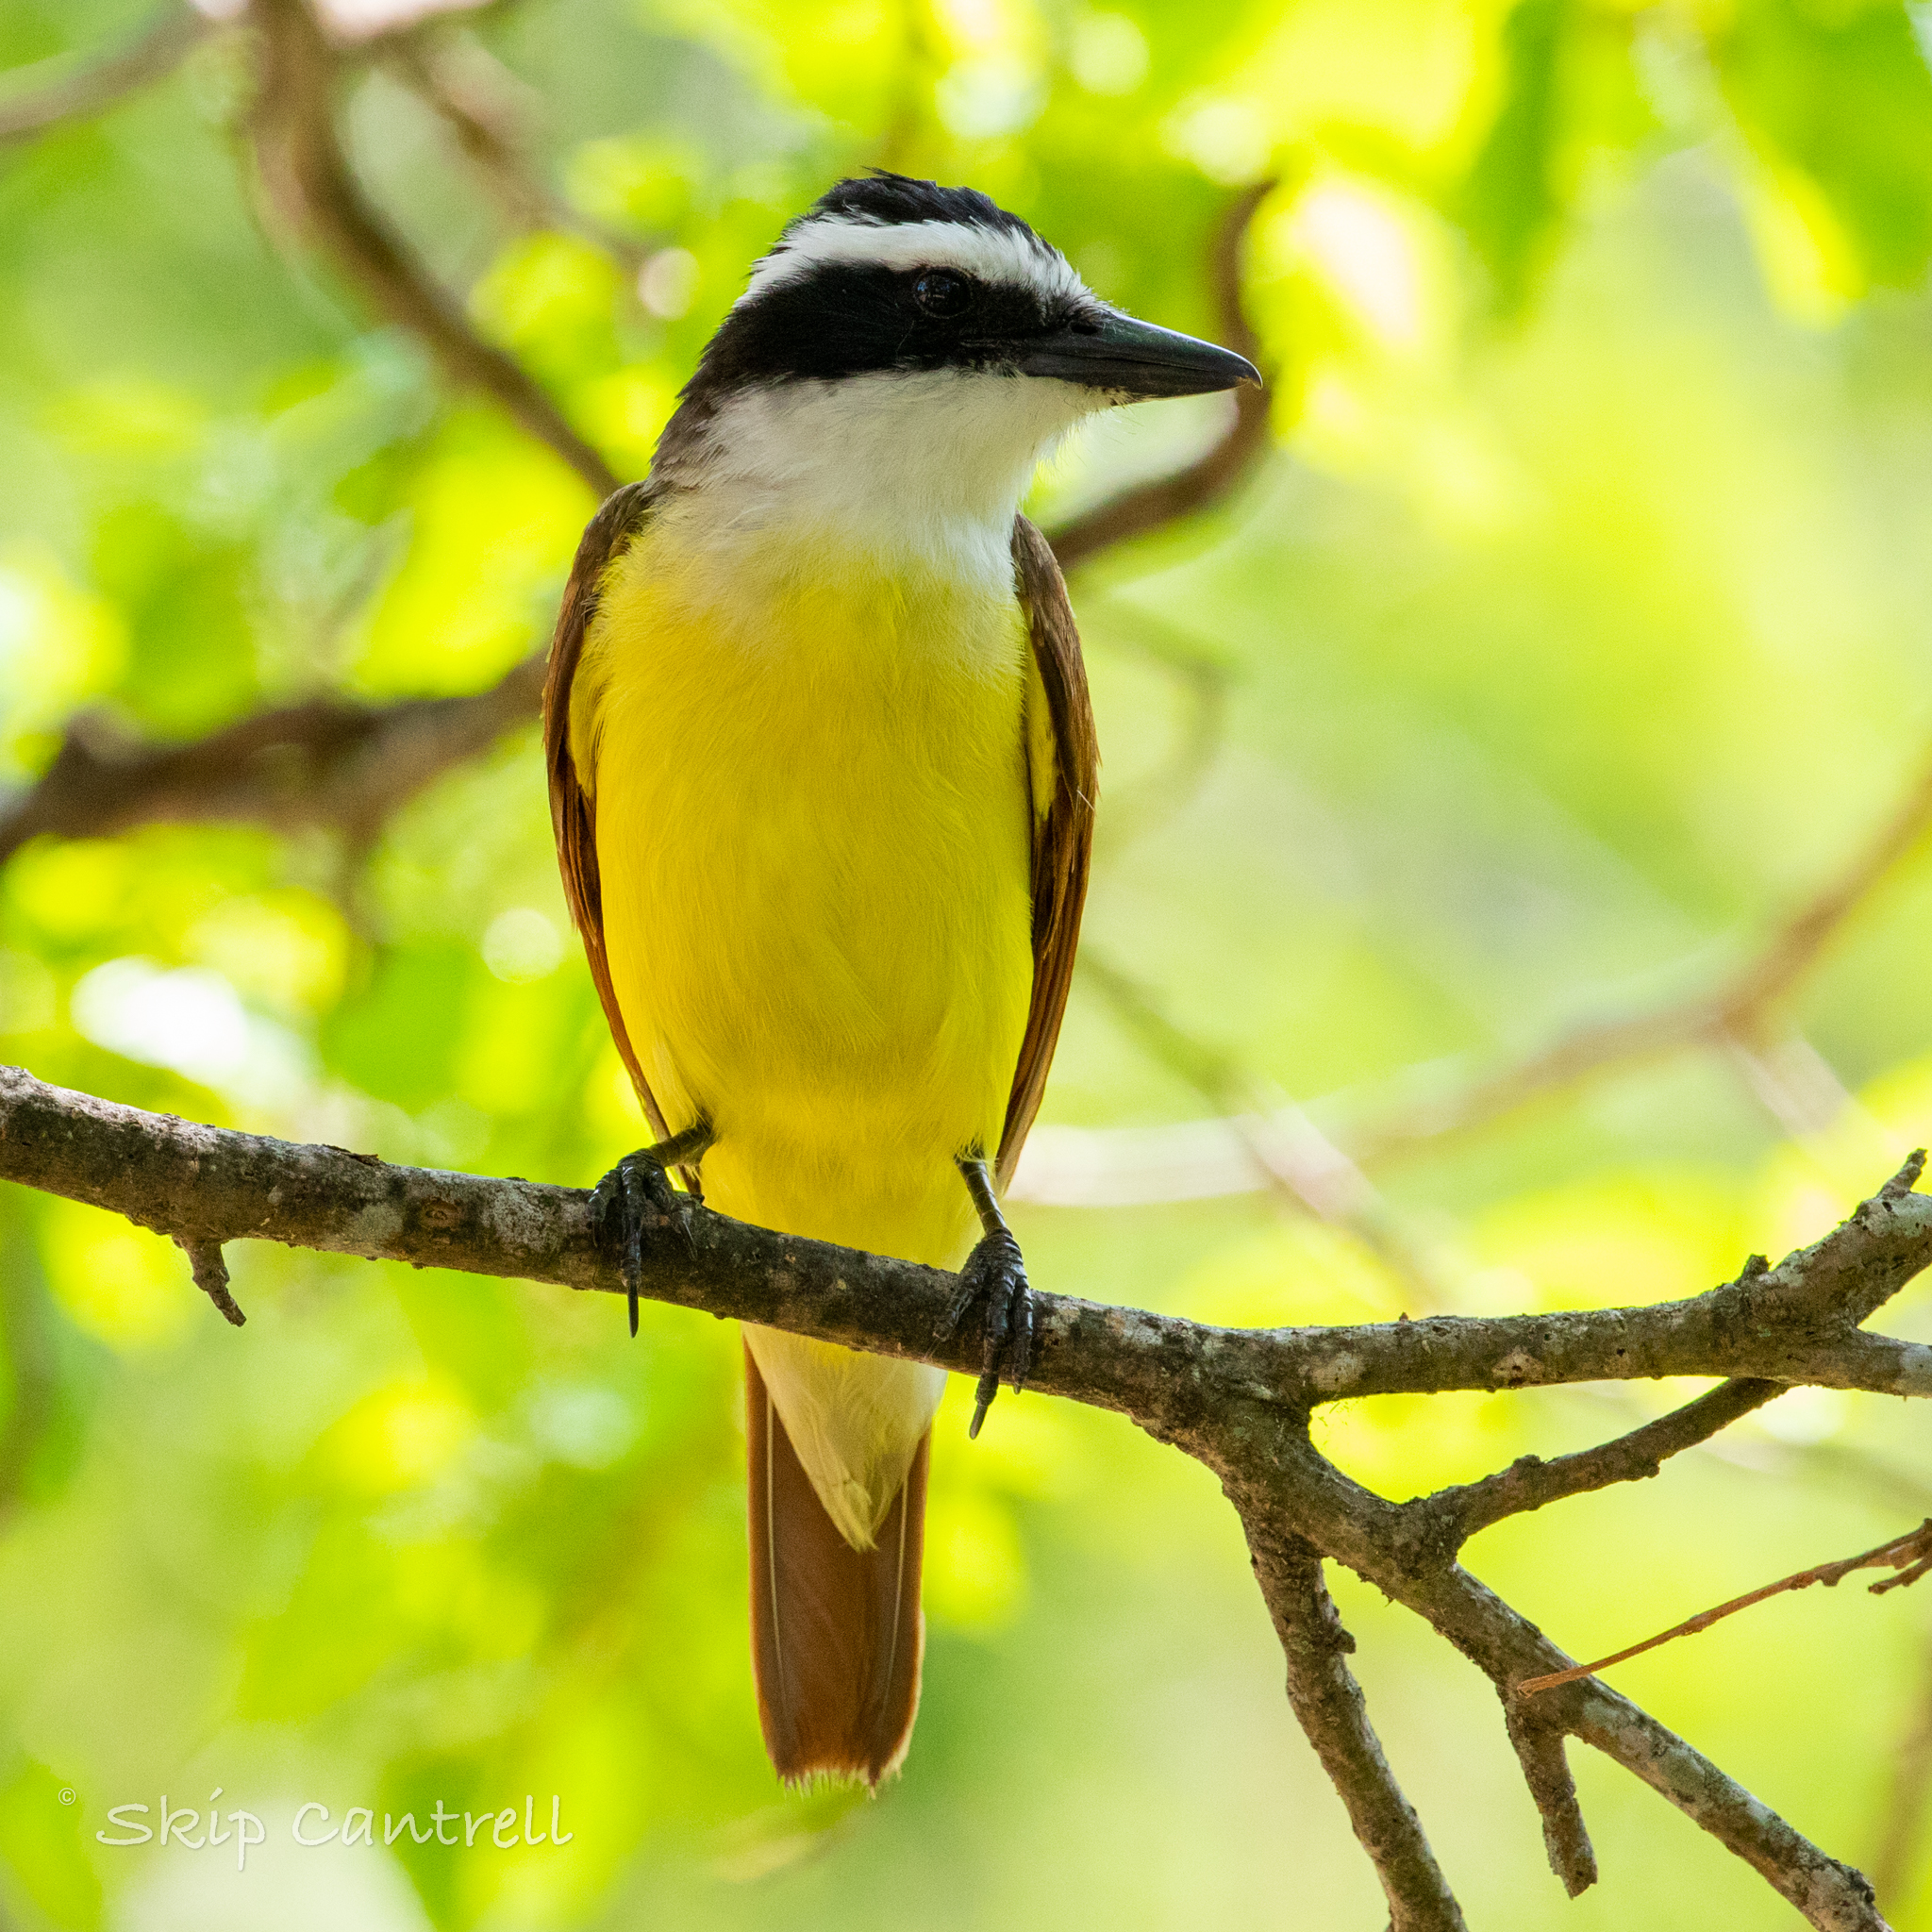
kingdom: Animalia
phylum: Chordata
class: Aves
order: Passeriformes
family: Tyrannidae
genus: Pitangus
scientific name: Pitangus sulphuratus
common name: Great kiskadee
